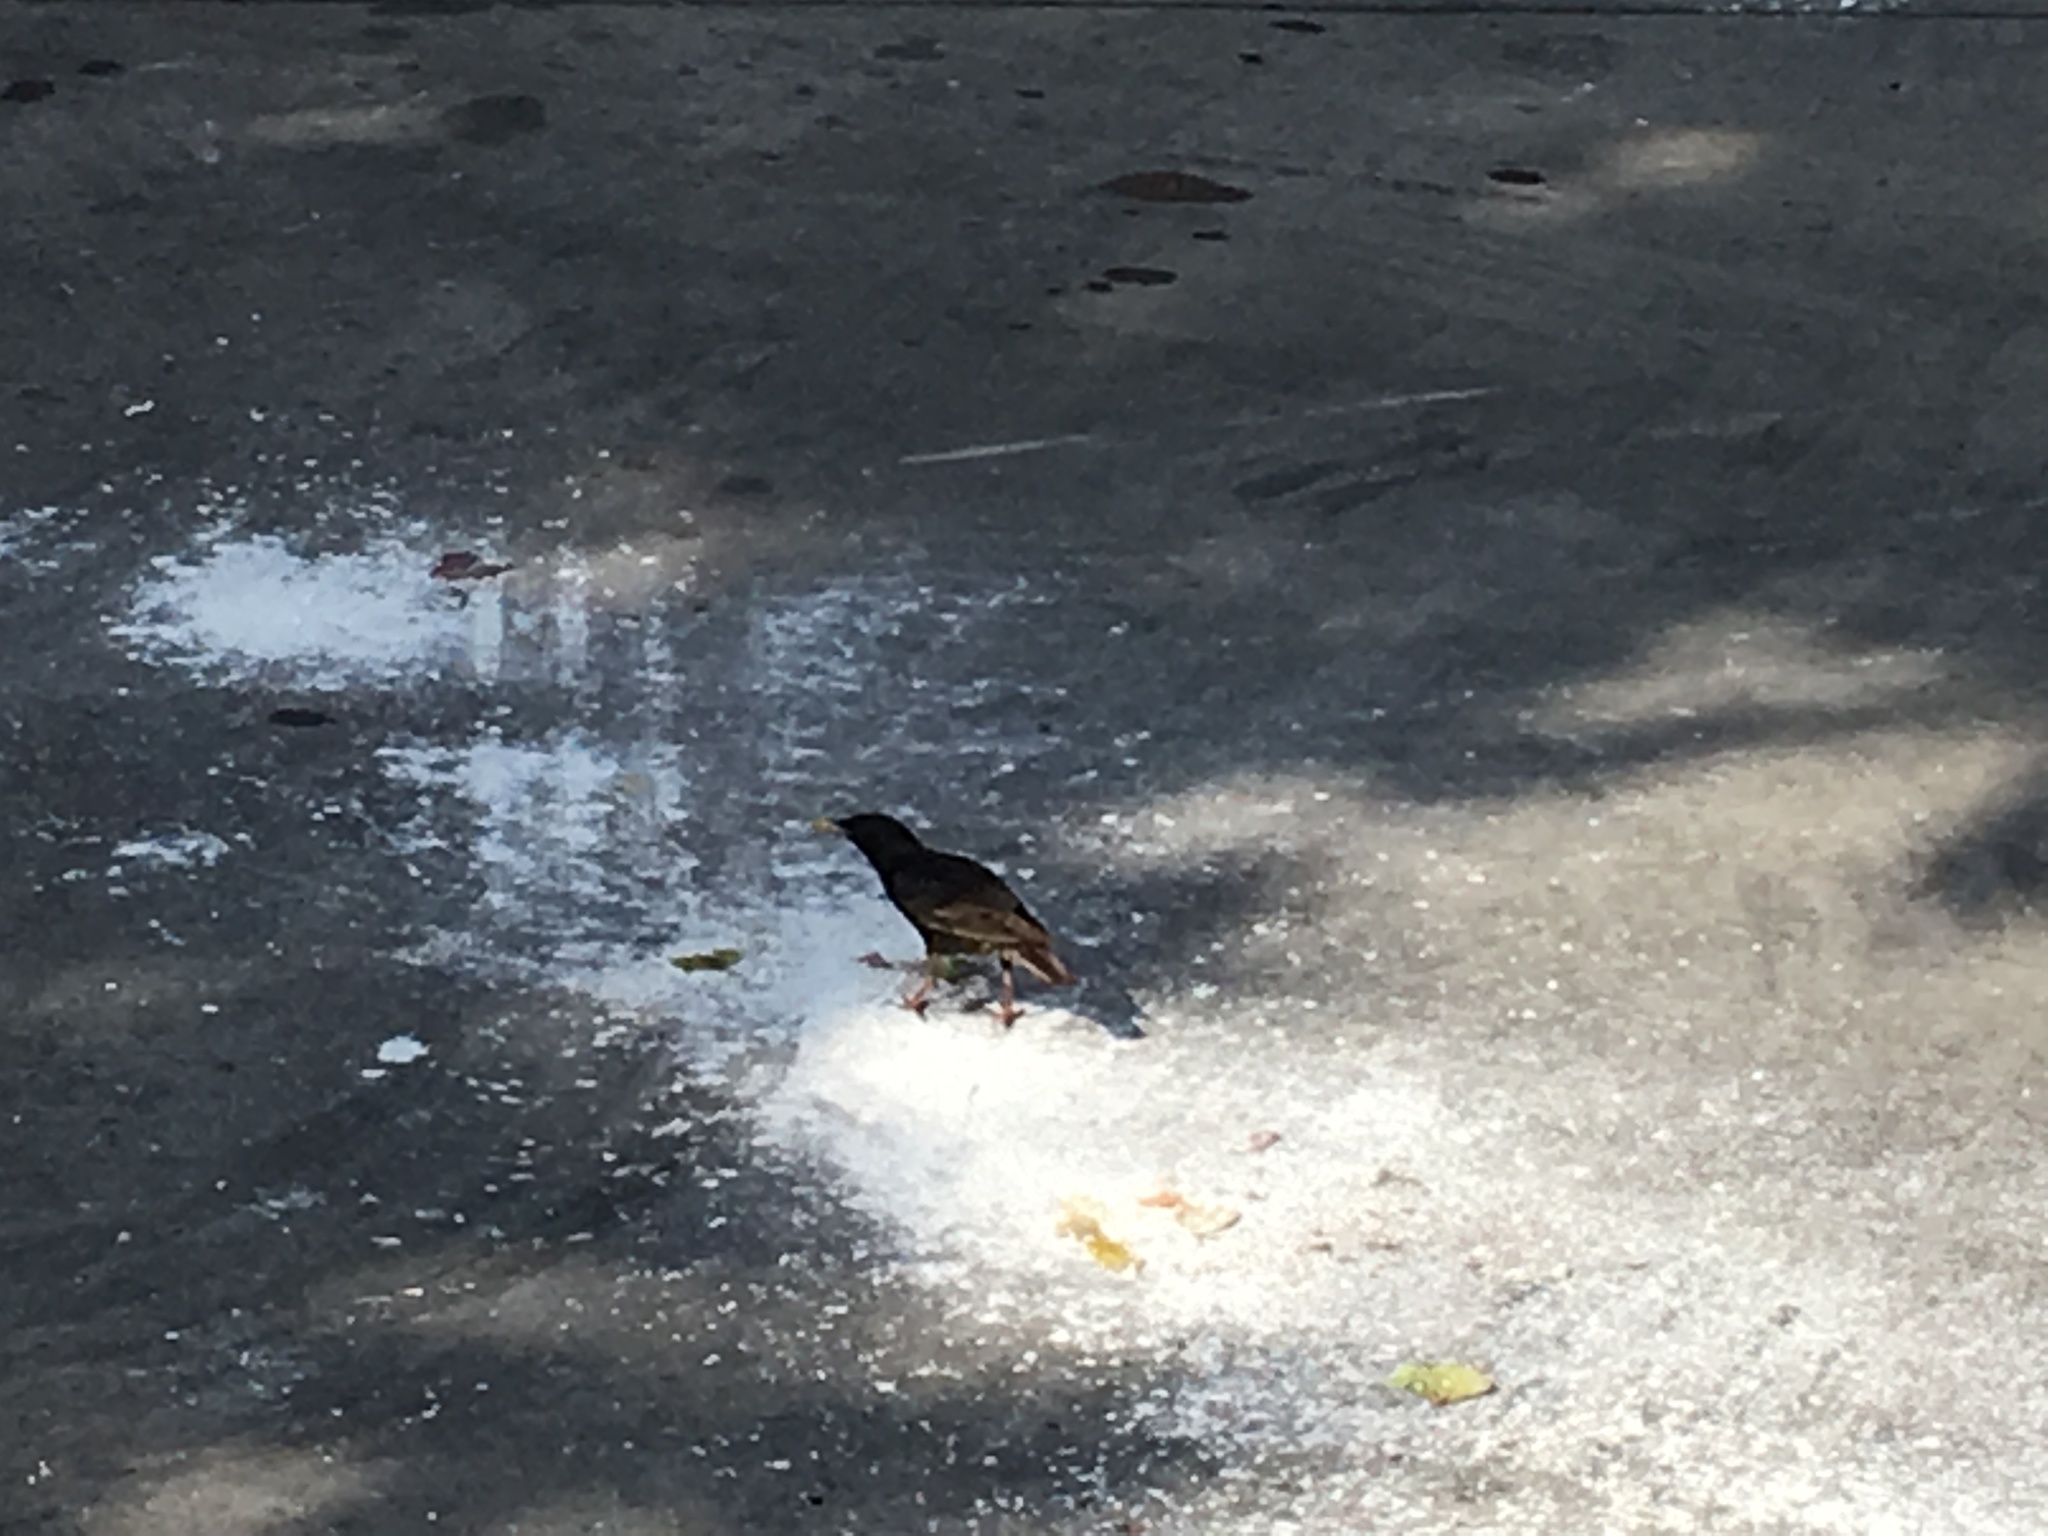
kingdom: Animalia
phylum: Chordata
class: Aves
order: Passeriformes
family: Sturnidae
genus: Sturnus
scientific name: Sturnus vulgaris
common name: Common starling
